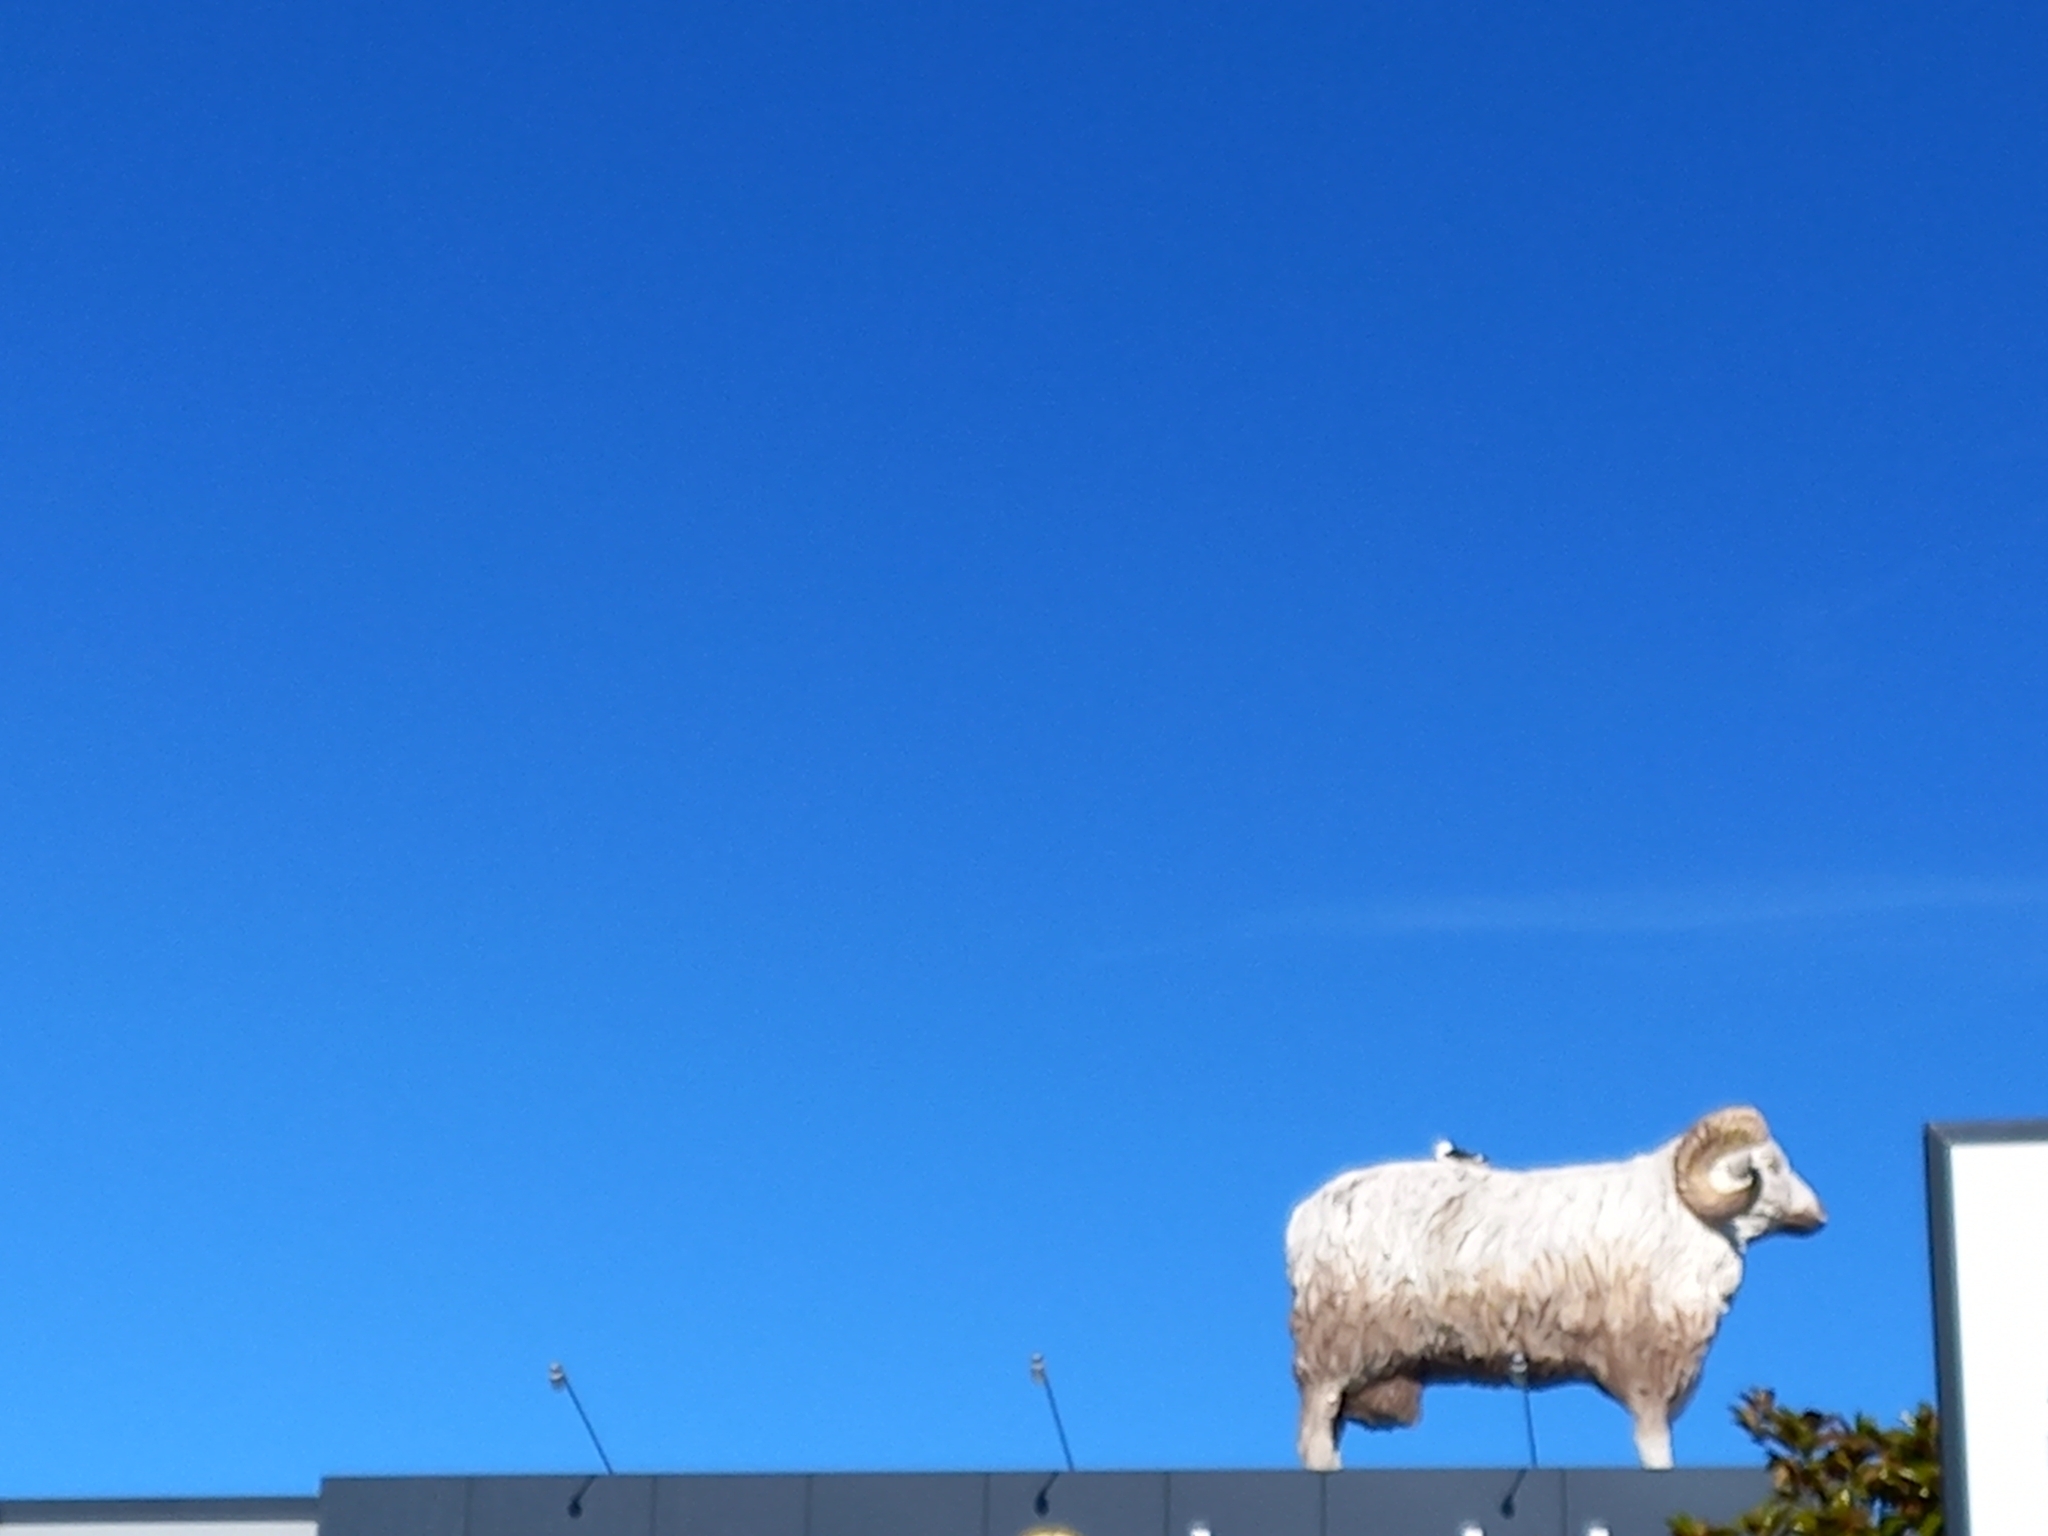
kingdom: Animalia
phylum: Chordata
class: Aves
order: Charadriiformes
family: Laridae
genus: Larus
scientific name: Larus dominicanus
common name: Kelp gull
